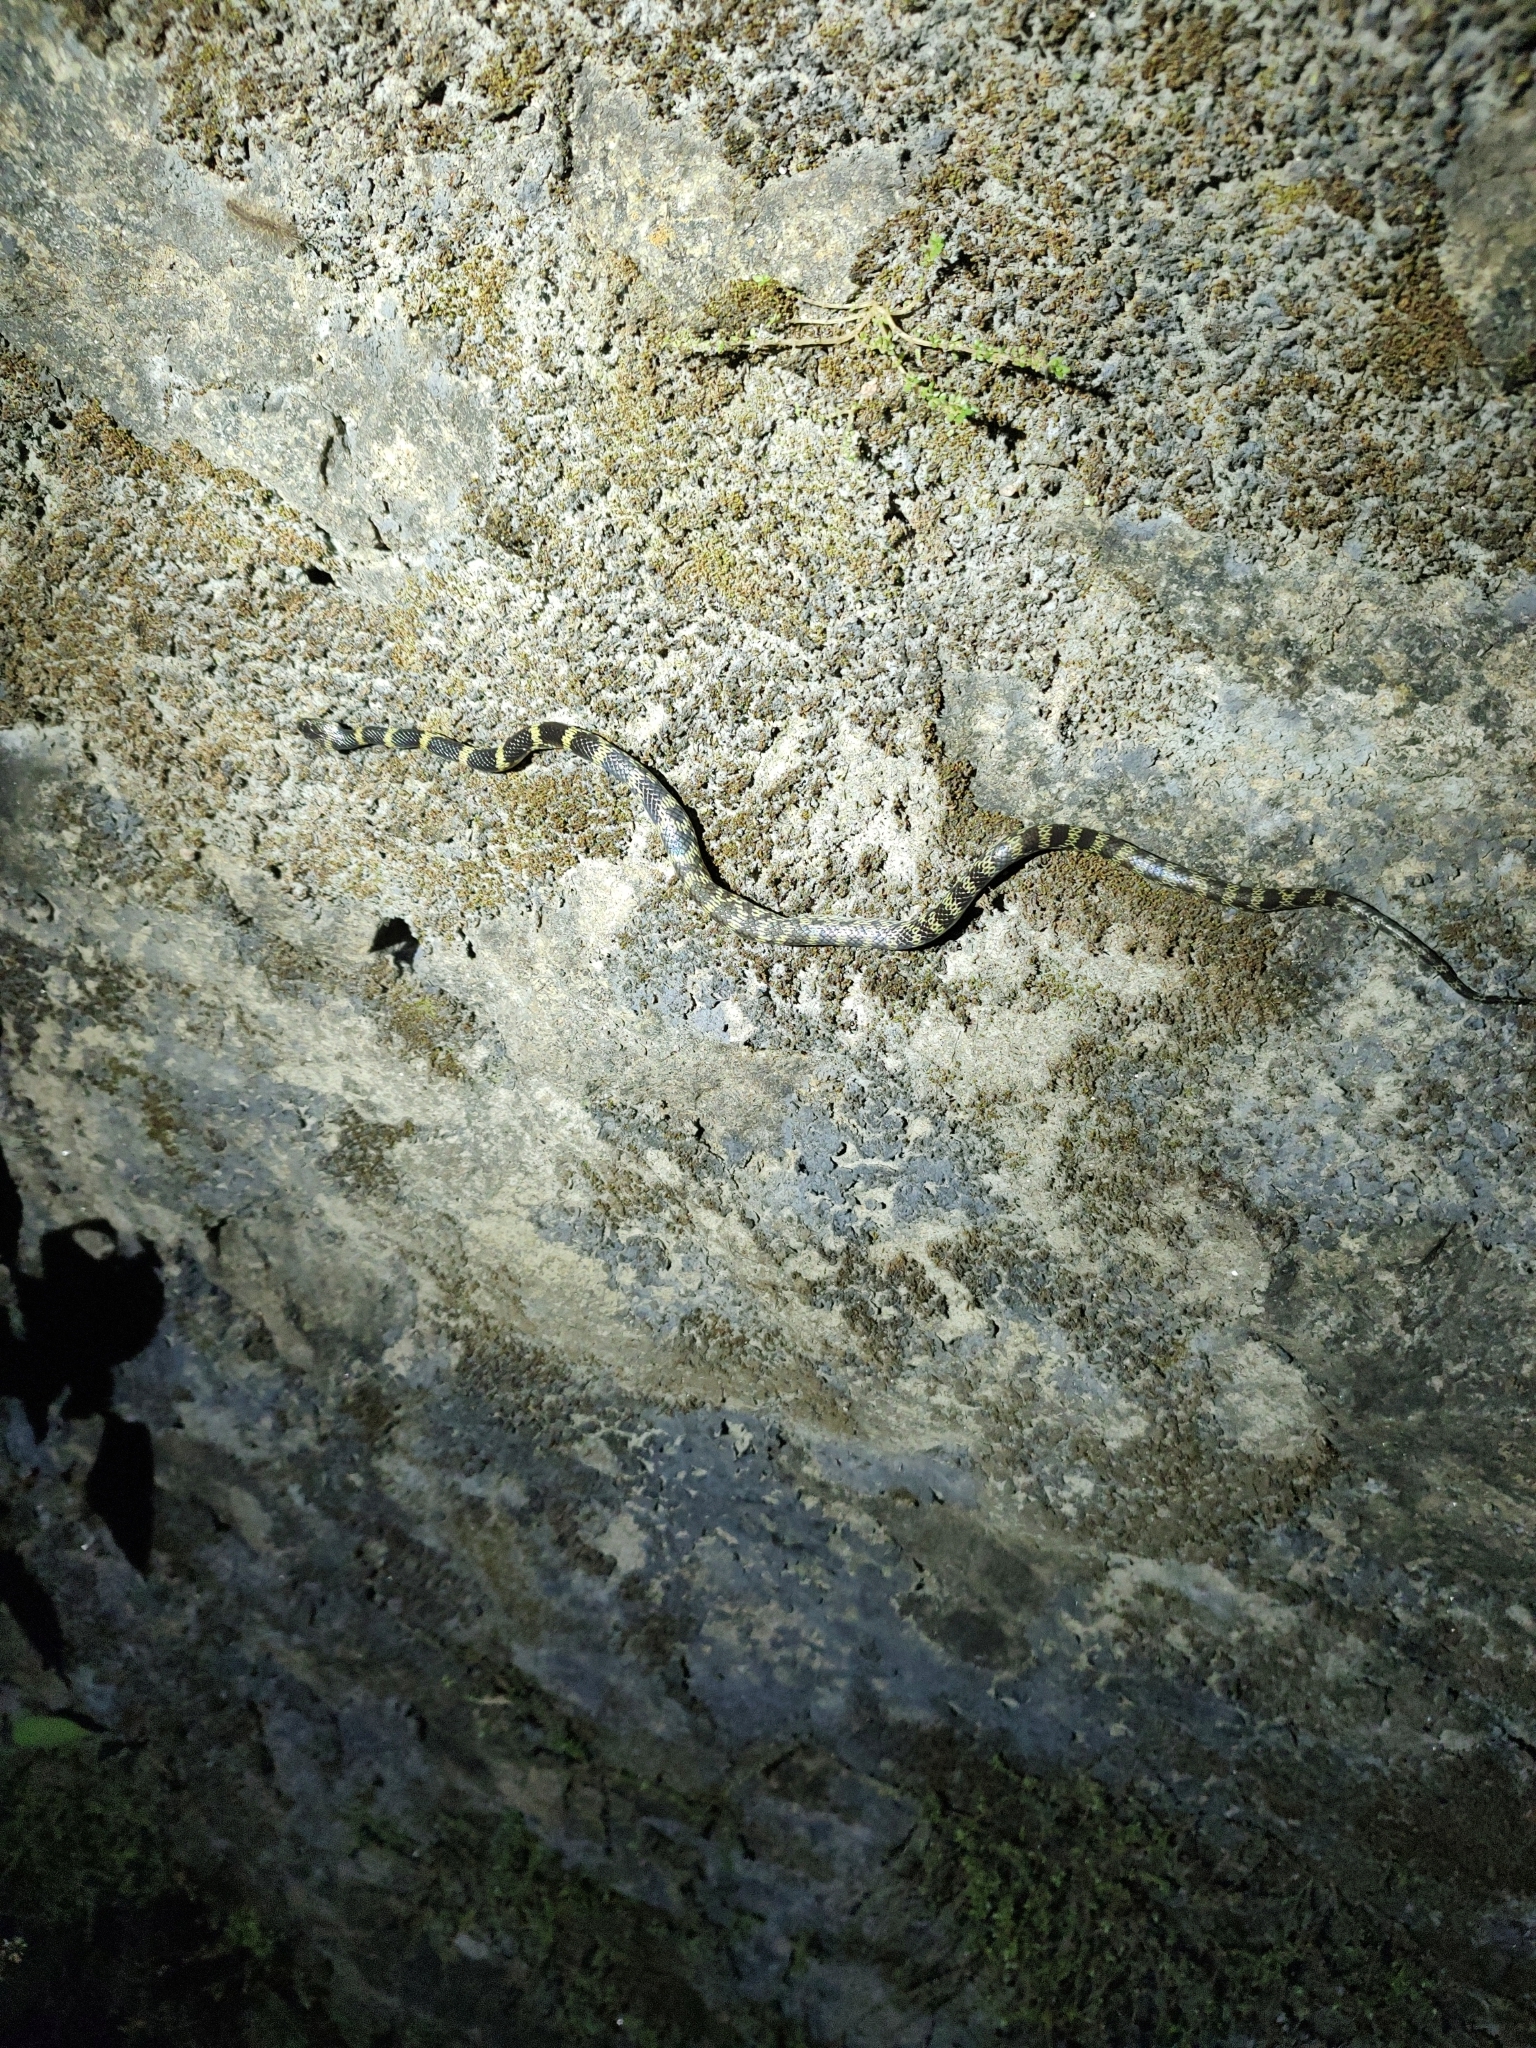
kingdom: Animalia
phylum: Chordata
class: Squamata
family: Colubridae
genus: Lycodon
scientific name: Lycodon travancoricus
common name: Travancore wolf snake
